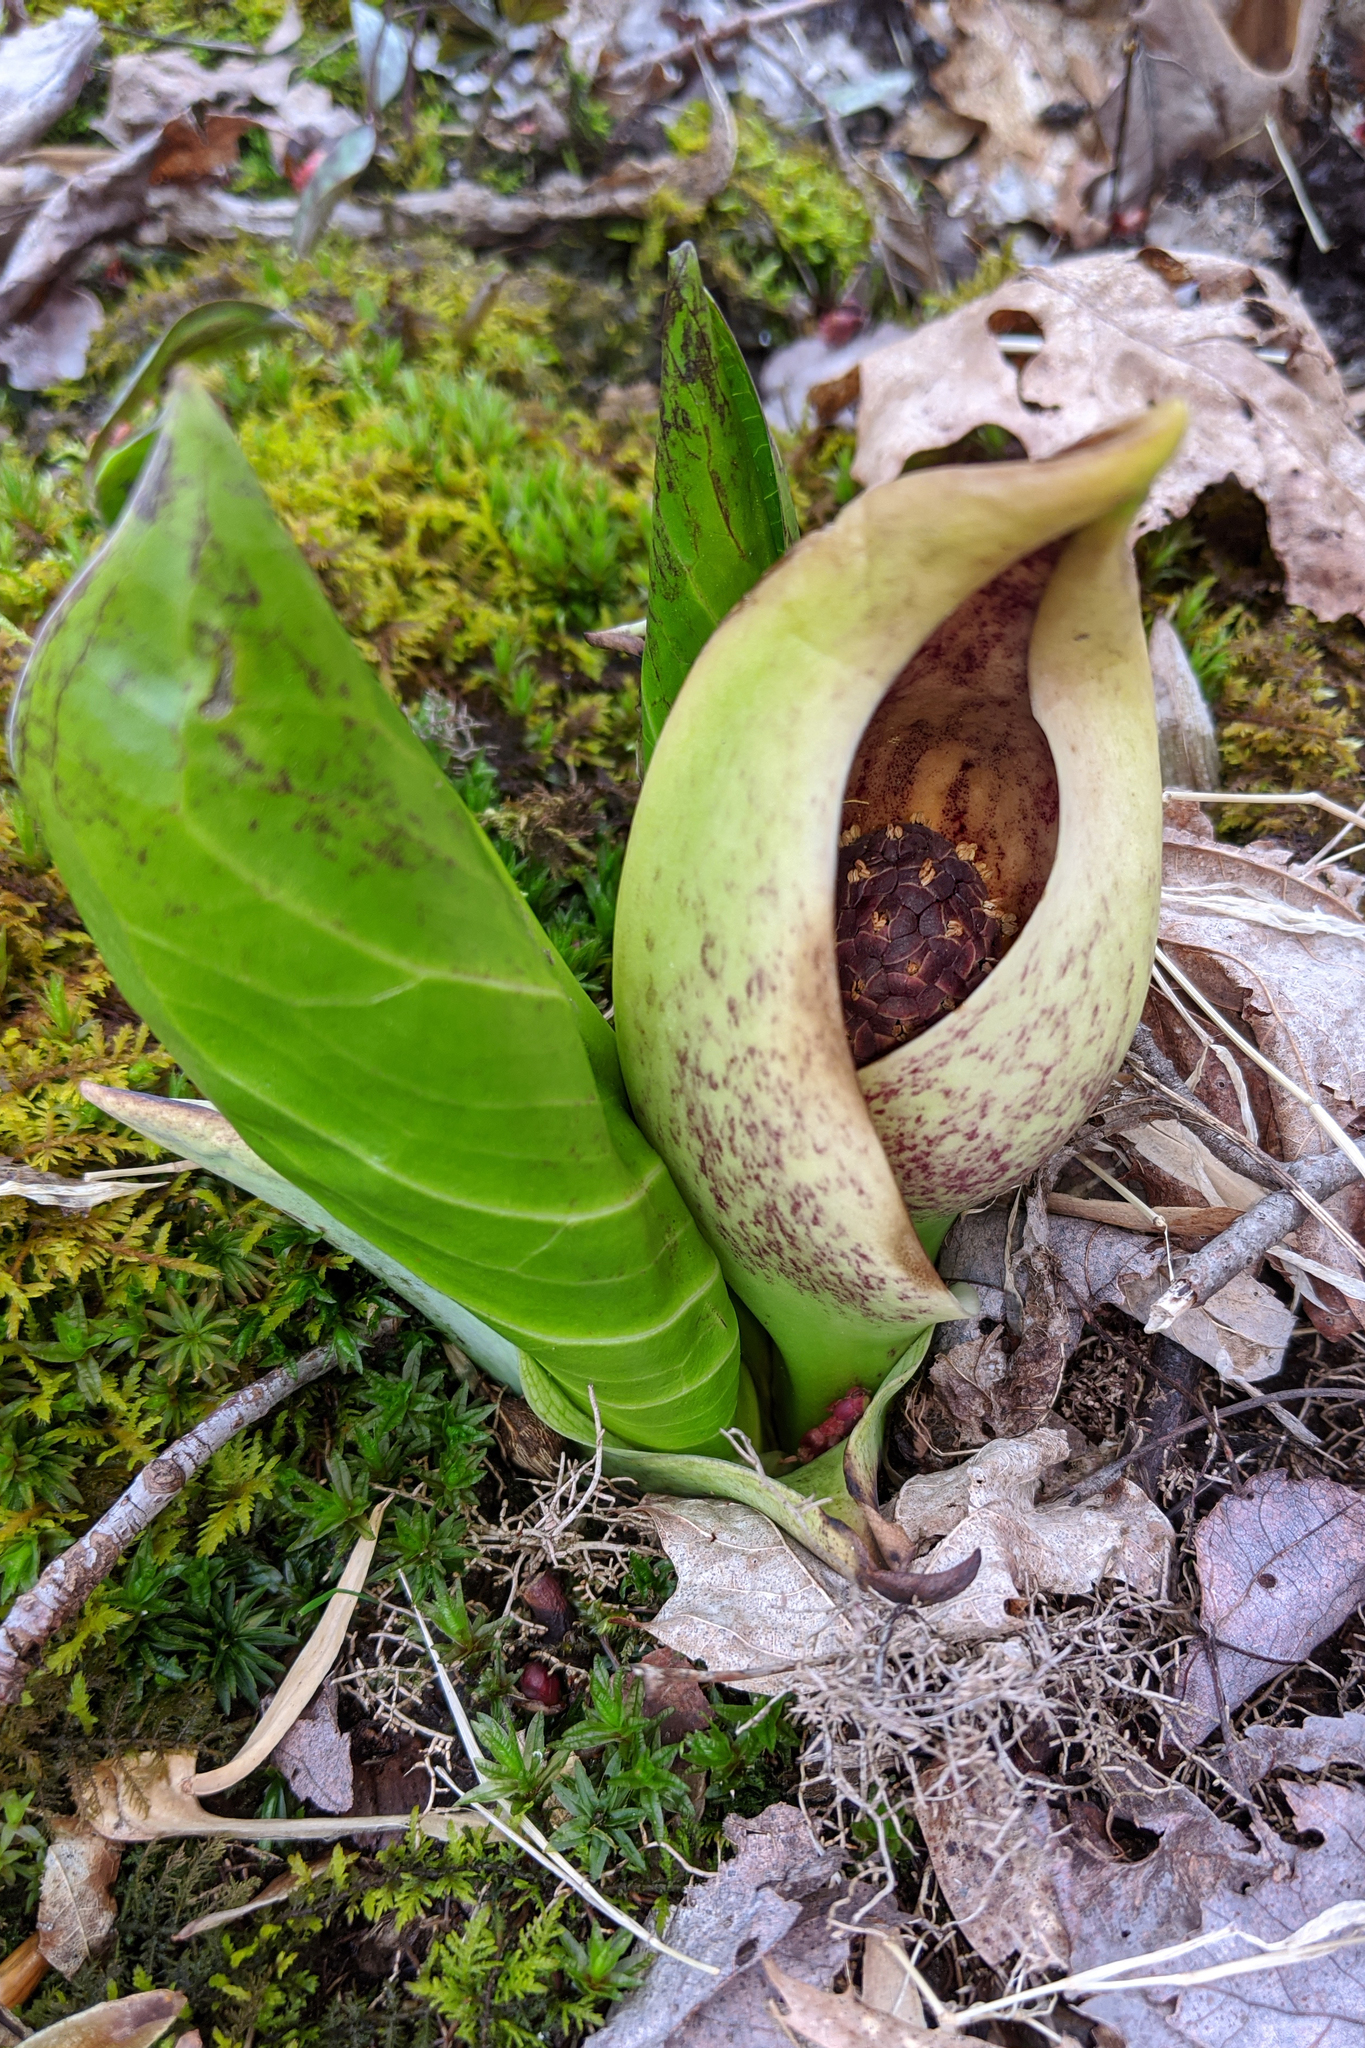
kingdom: Plantae
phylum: Tracheophyta
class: Liliopsida
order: Alismatales
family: Araceae
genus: Symplocarpus
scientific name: Symplocarpus foetidus
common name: Eastern skunk cabbage
